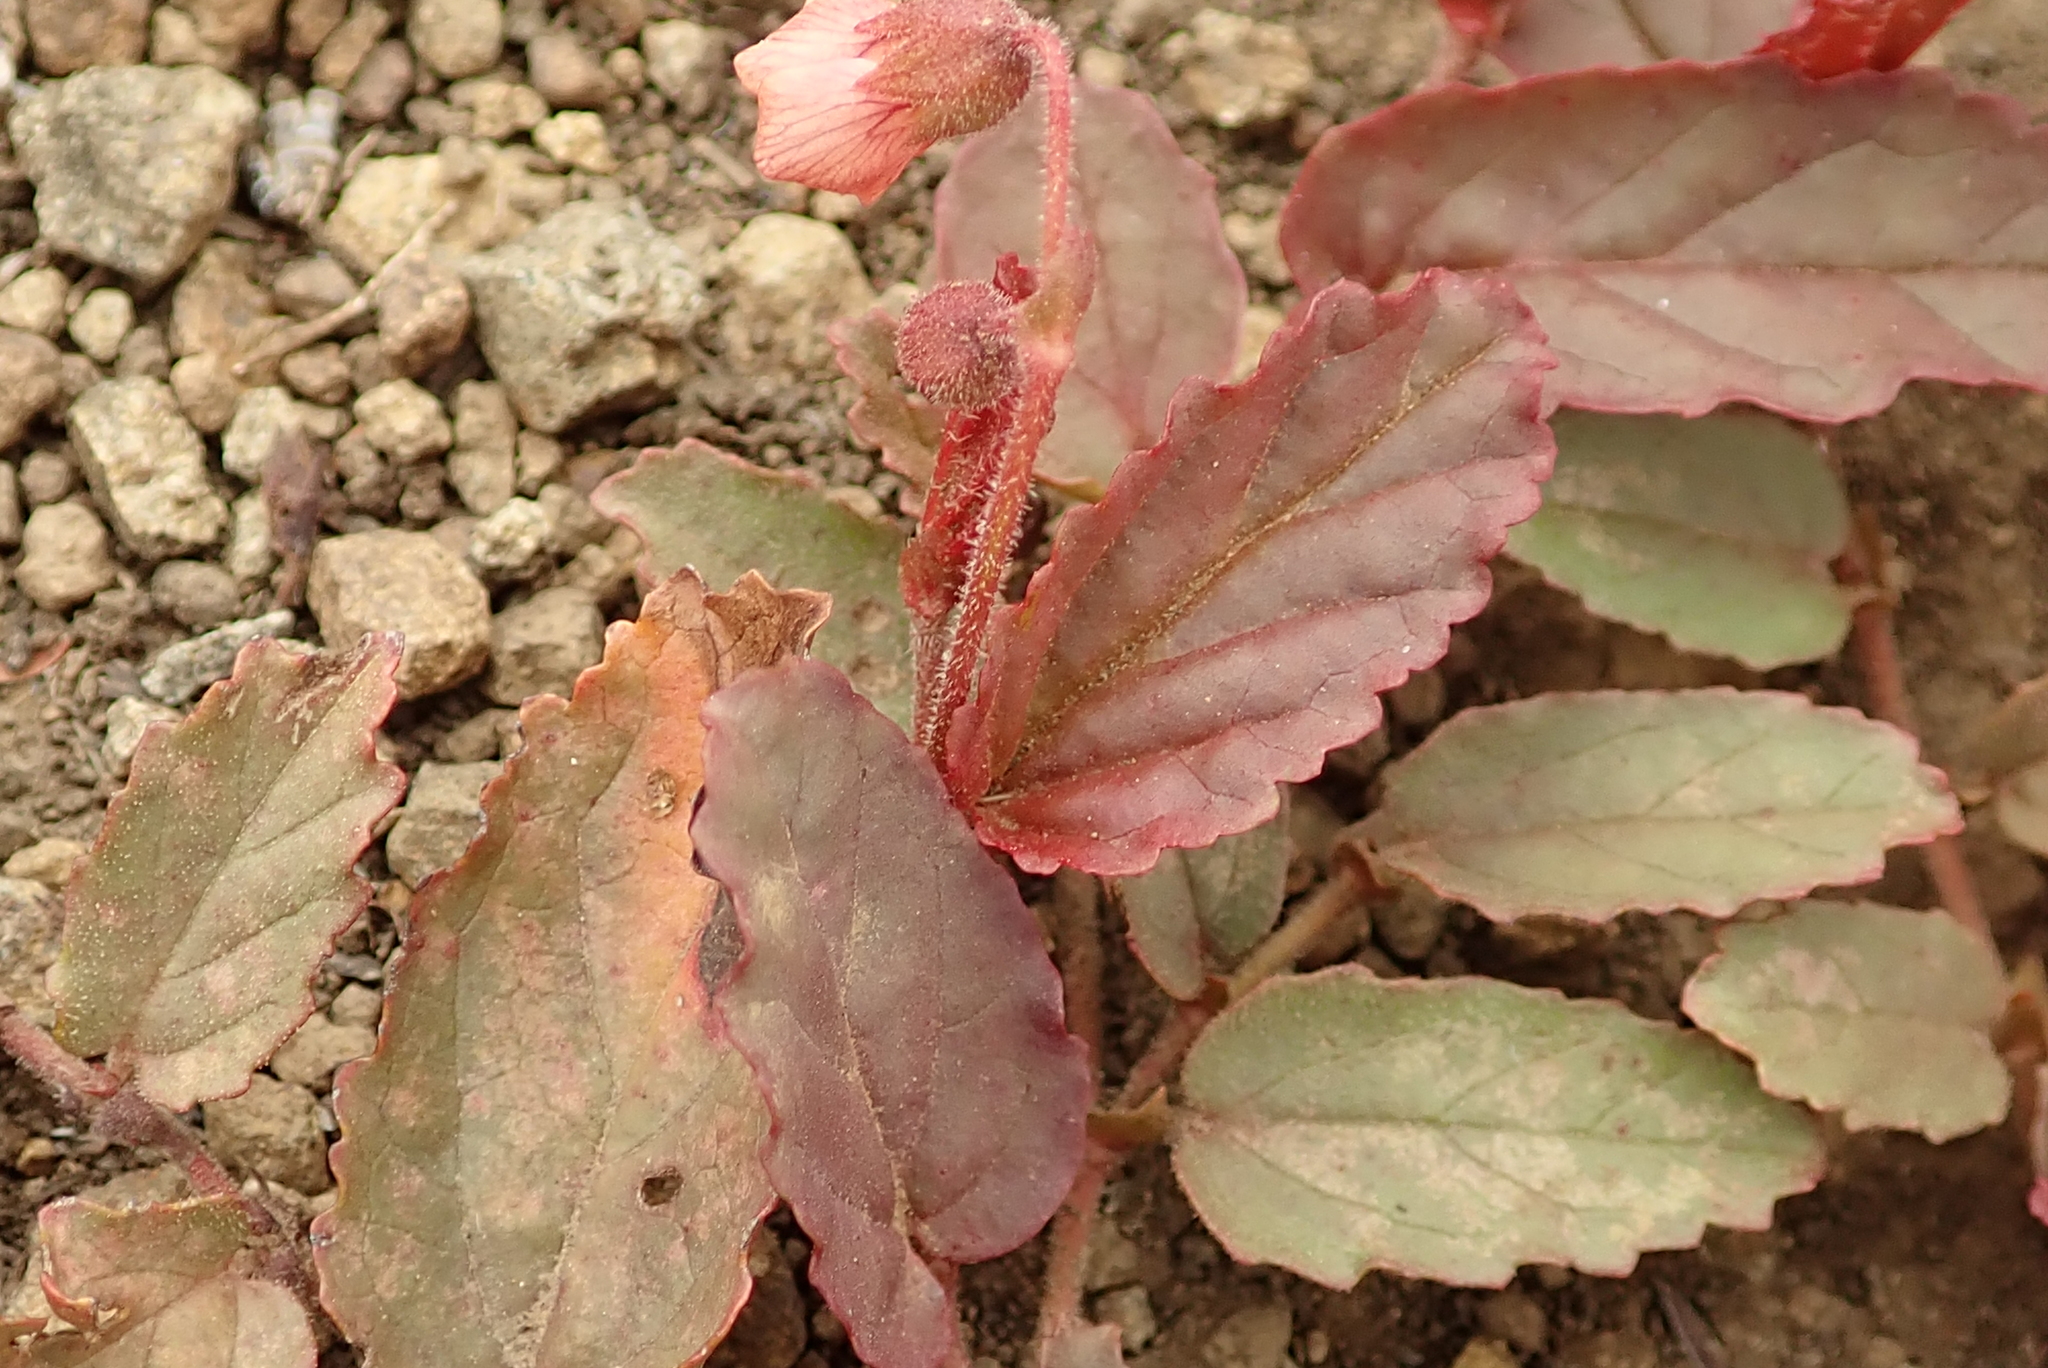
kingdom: Plantae
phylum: Tracheophyta
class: Magnoliopsida
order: Malvales
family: Malvaceae
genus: Hermannia
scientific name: Hermannia depressa
